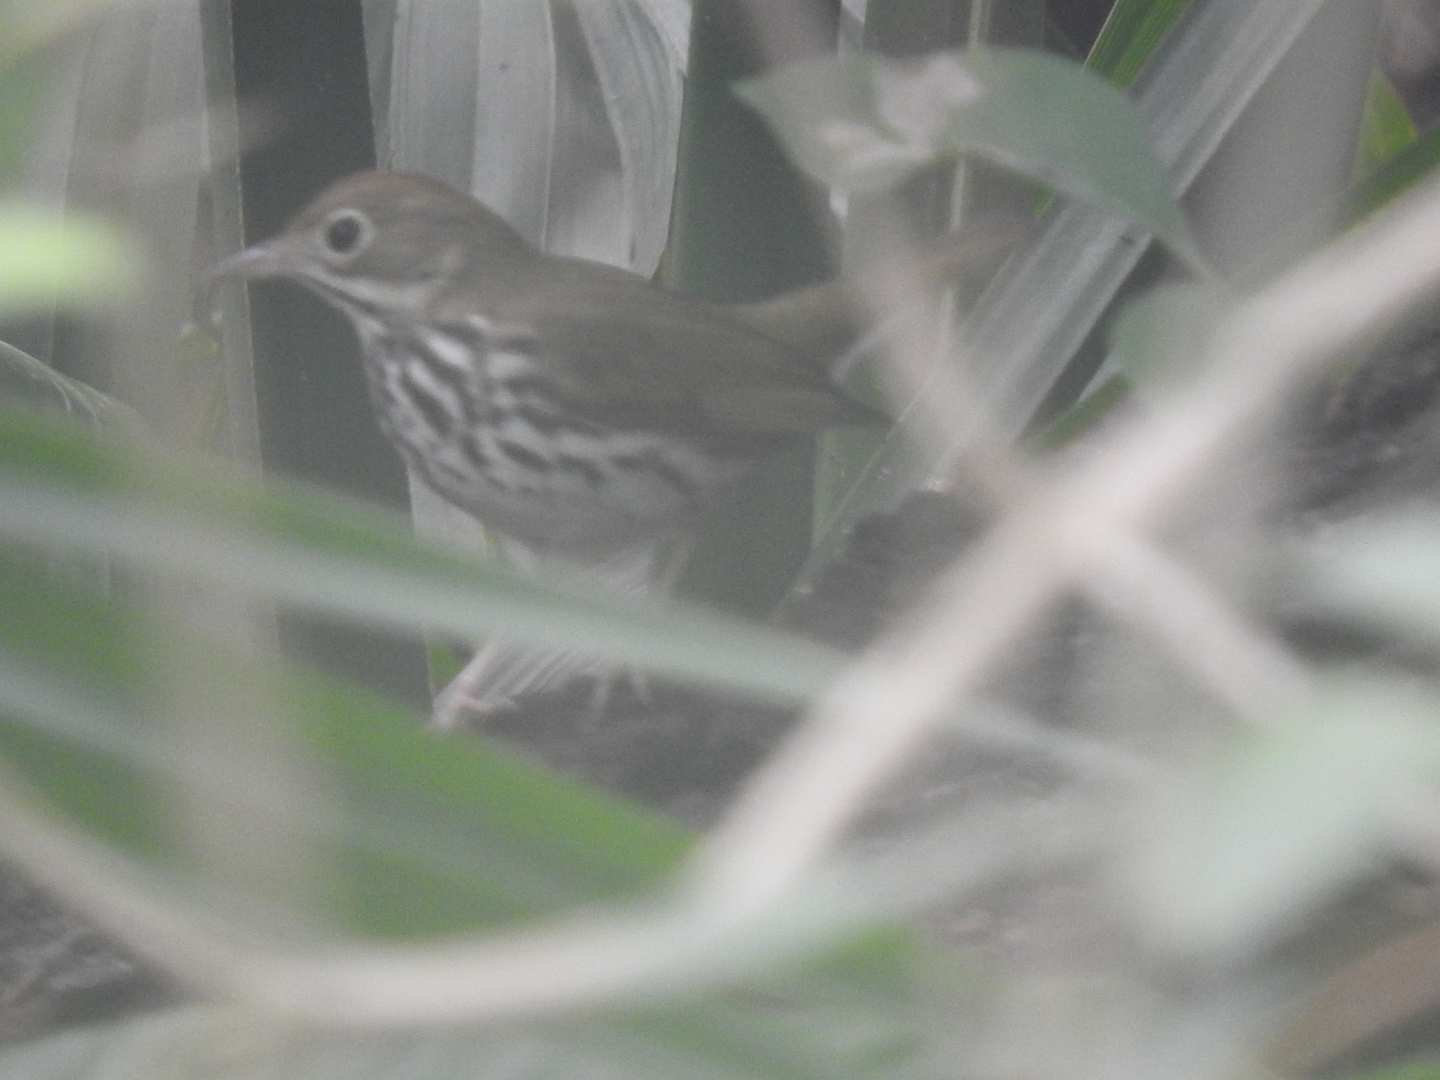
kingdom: Animalia
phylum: Chordata
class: Aves
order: Passeriformes
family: Parulidae
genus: Seiurus
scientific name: Seiurus aurocapilla
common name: Ovenbird
